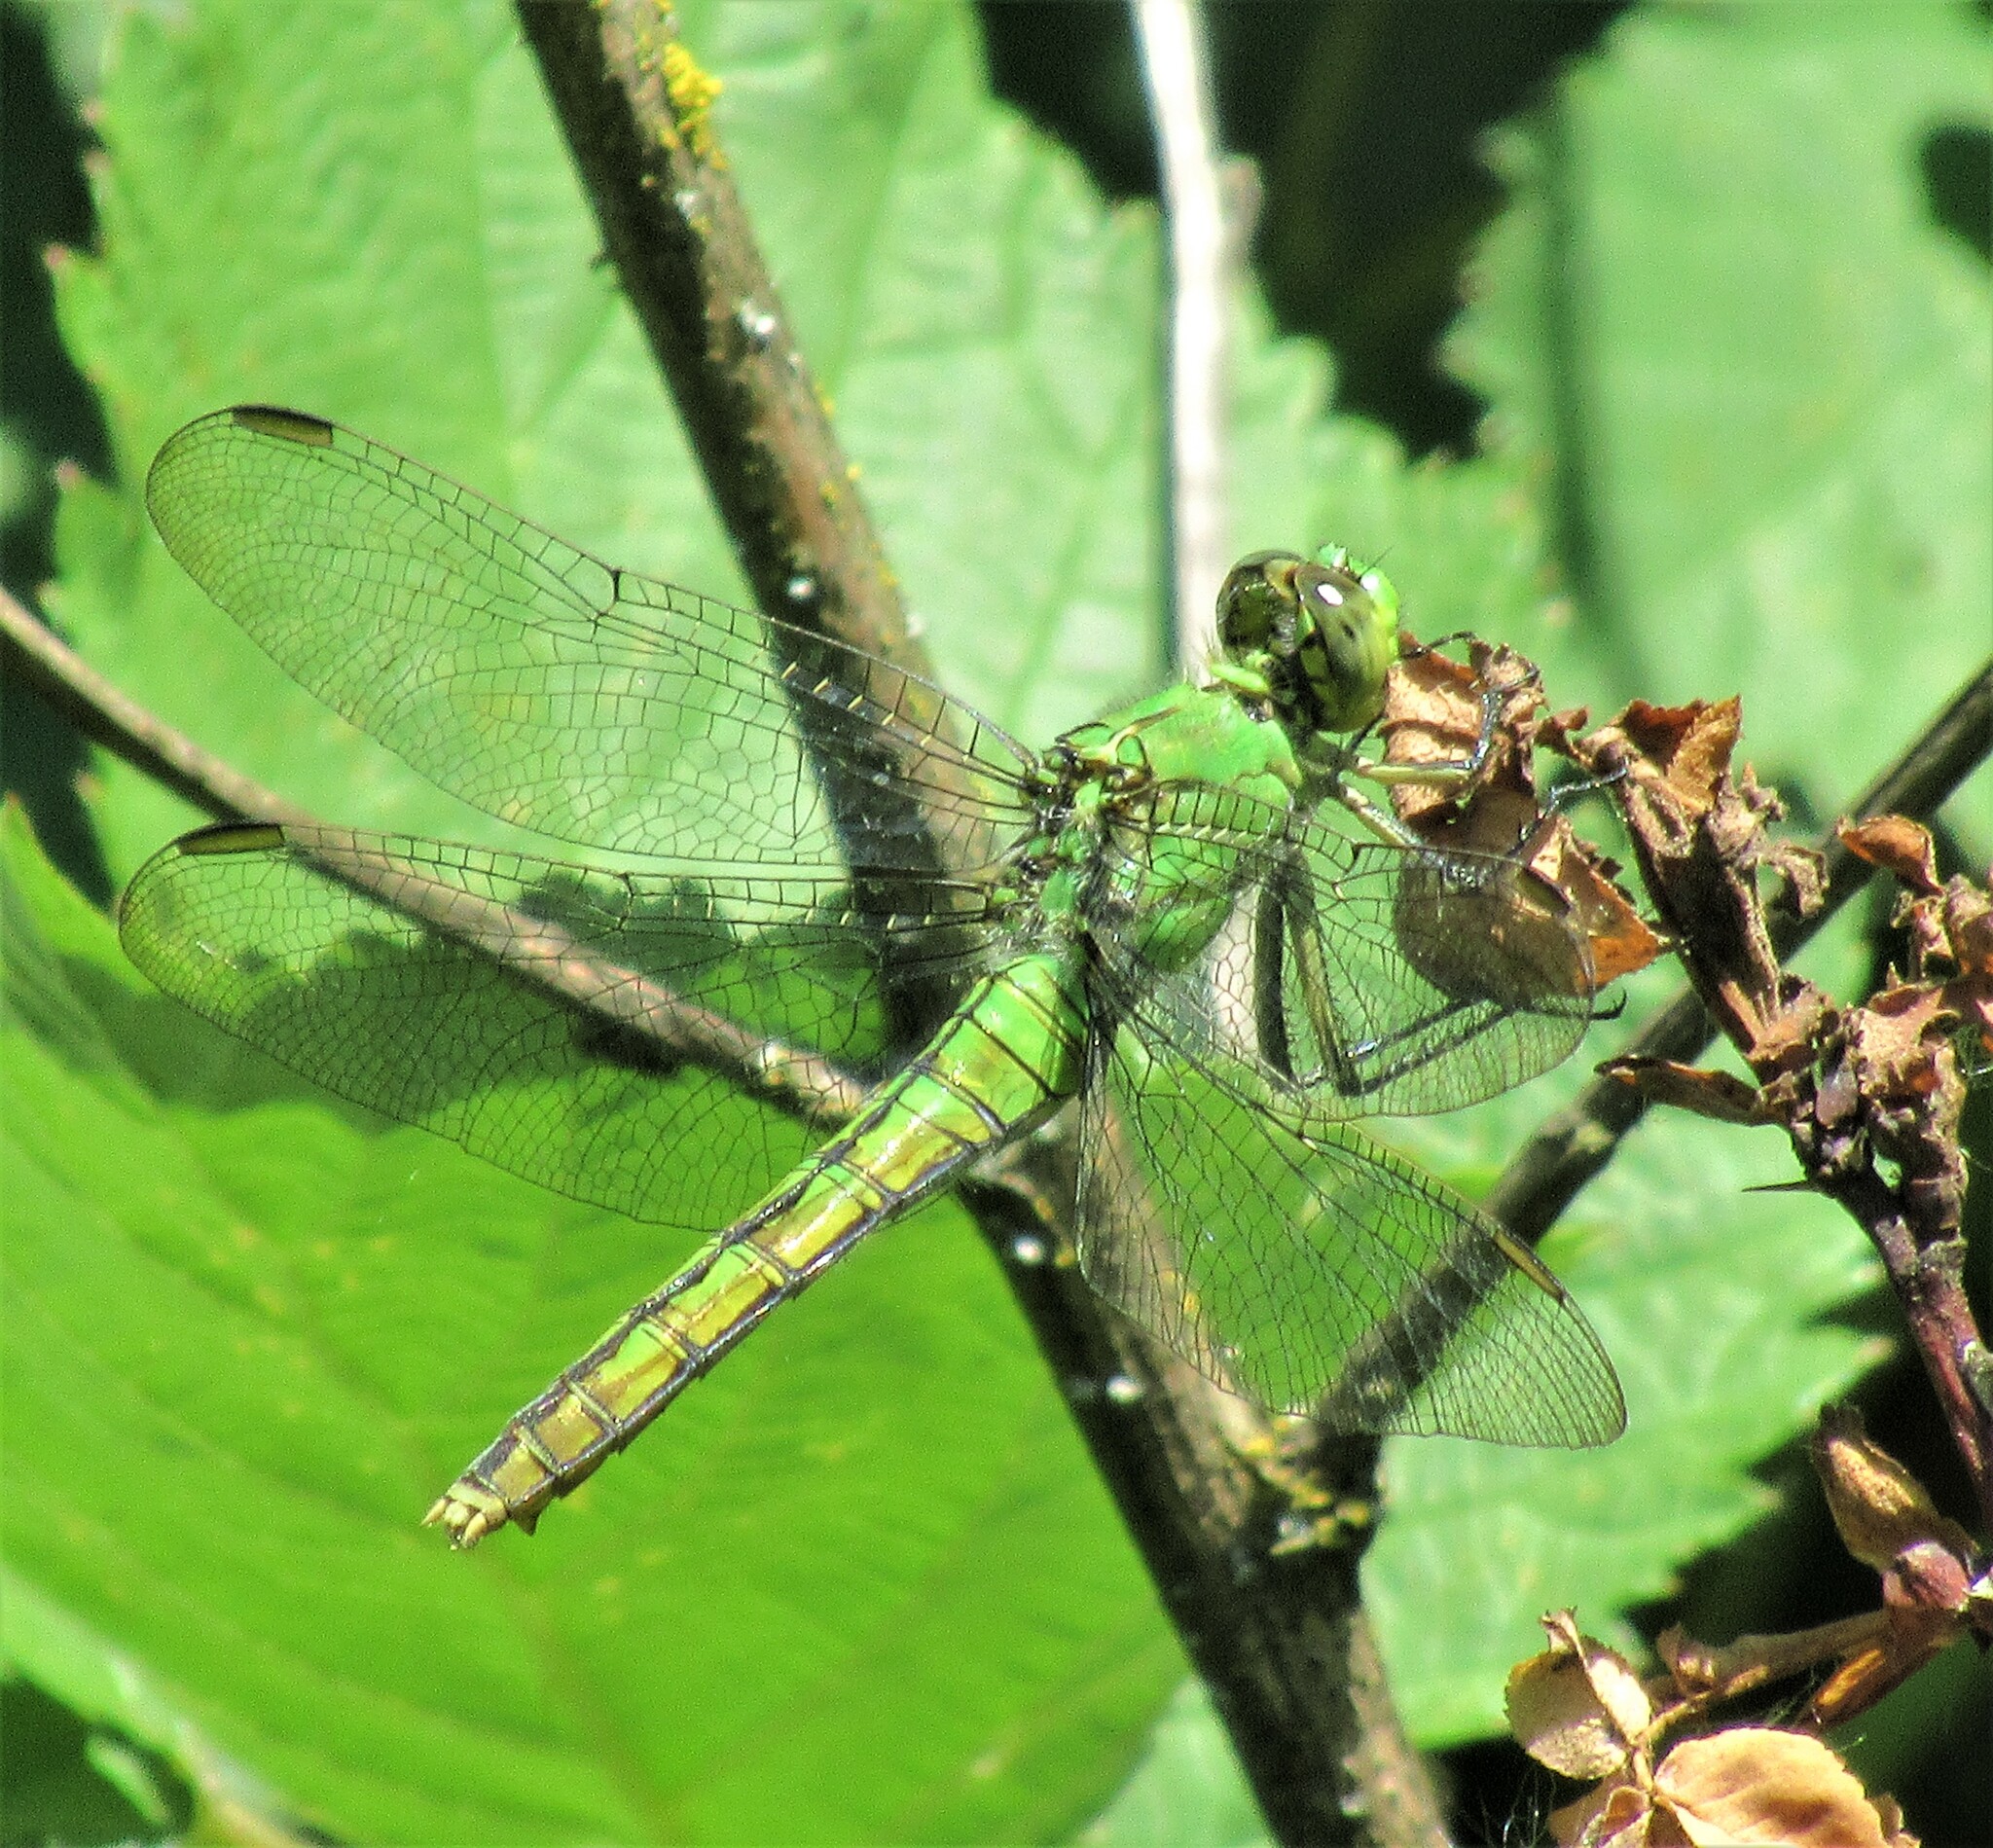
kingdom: Animalia
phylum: Arthropoda
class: Insecta
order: Odonata
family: Libellulidae
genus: Erythemis
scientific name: Erythemis collocata
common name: Western pondhawk
